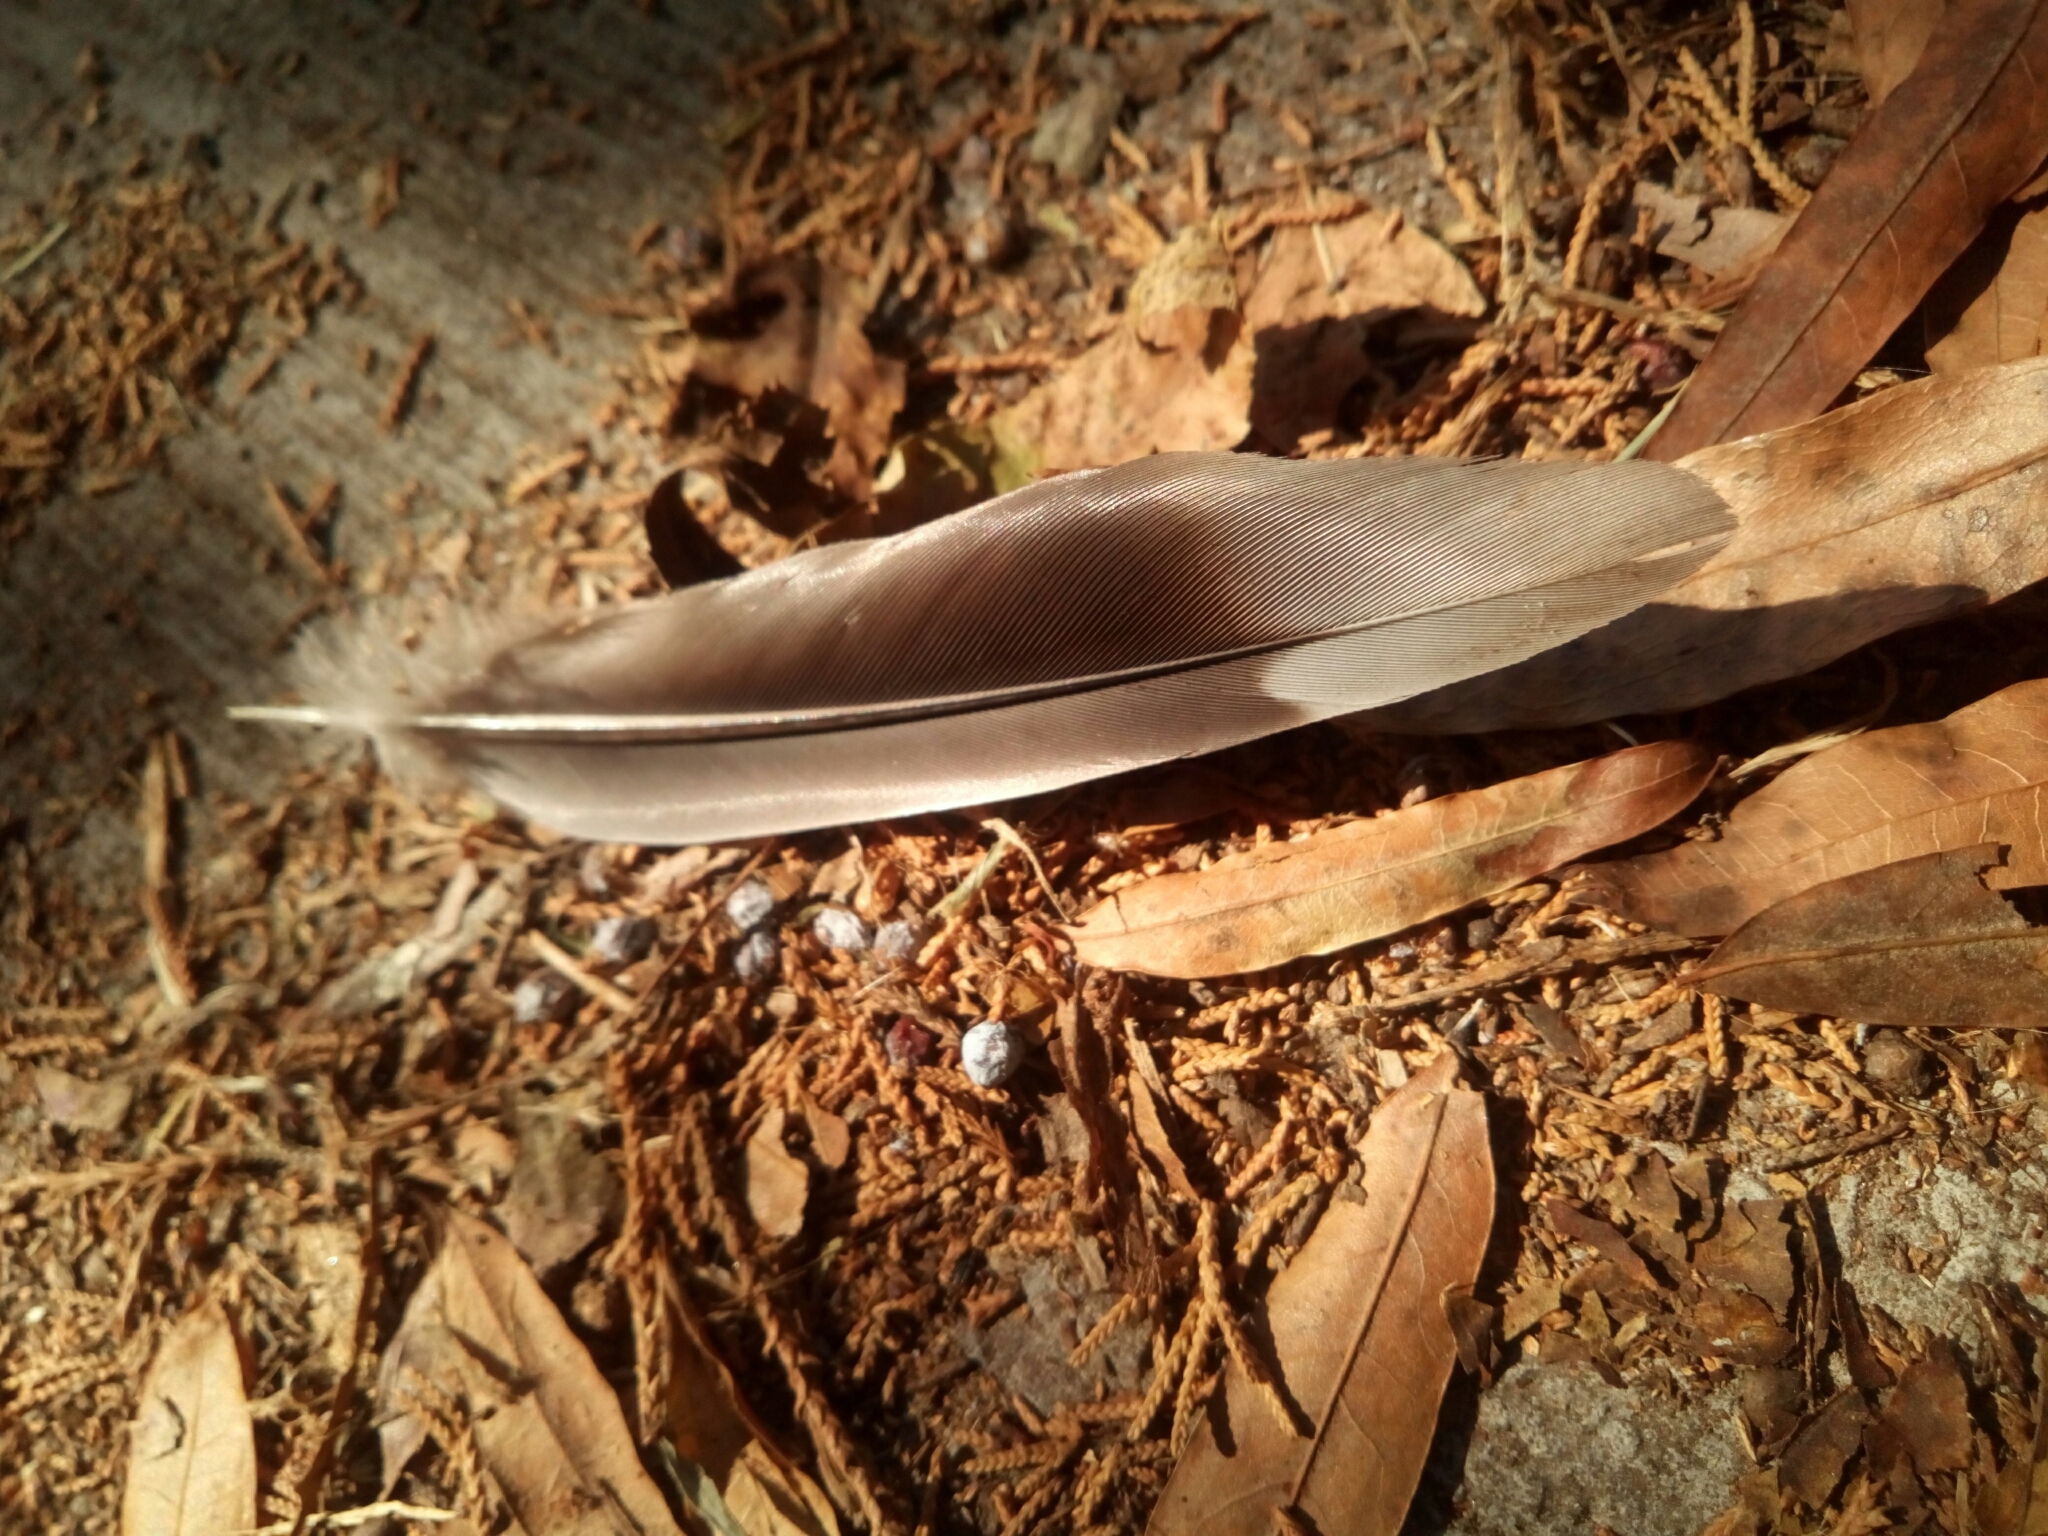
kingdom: Animalia
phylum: Chordata
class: Aves
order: Columbiformes
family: Columbidae
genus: Zenaida
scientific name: Zenaida macroura
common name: Mourning dove
